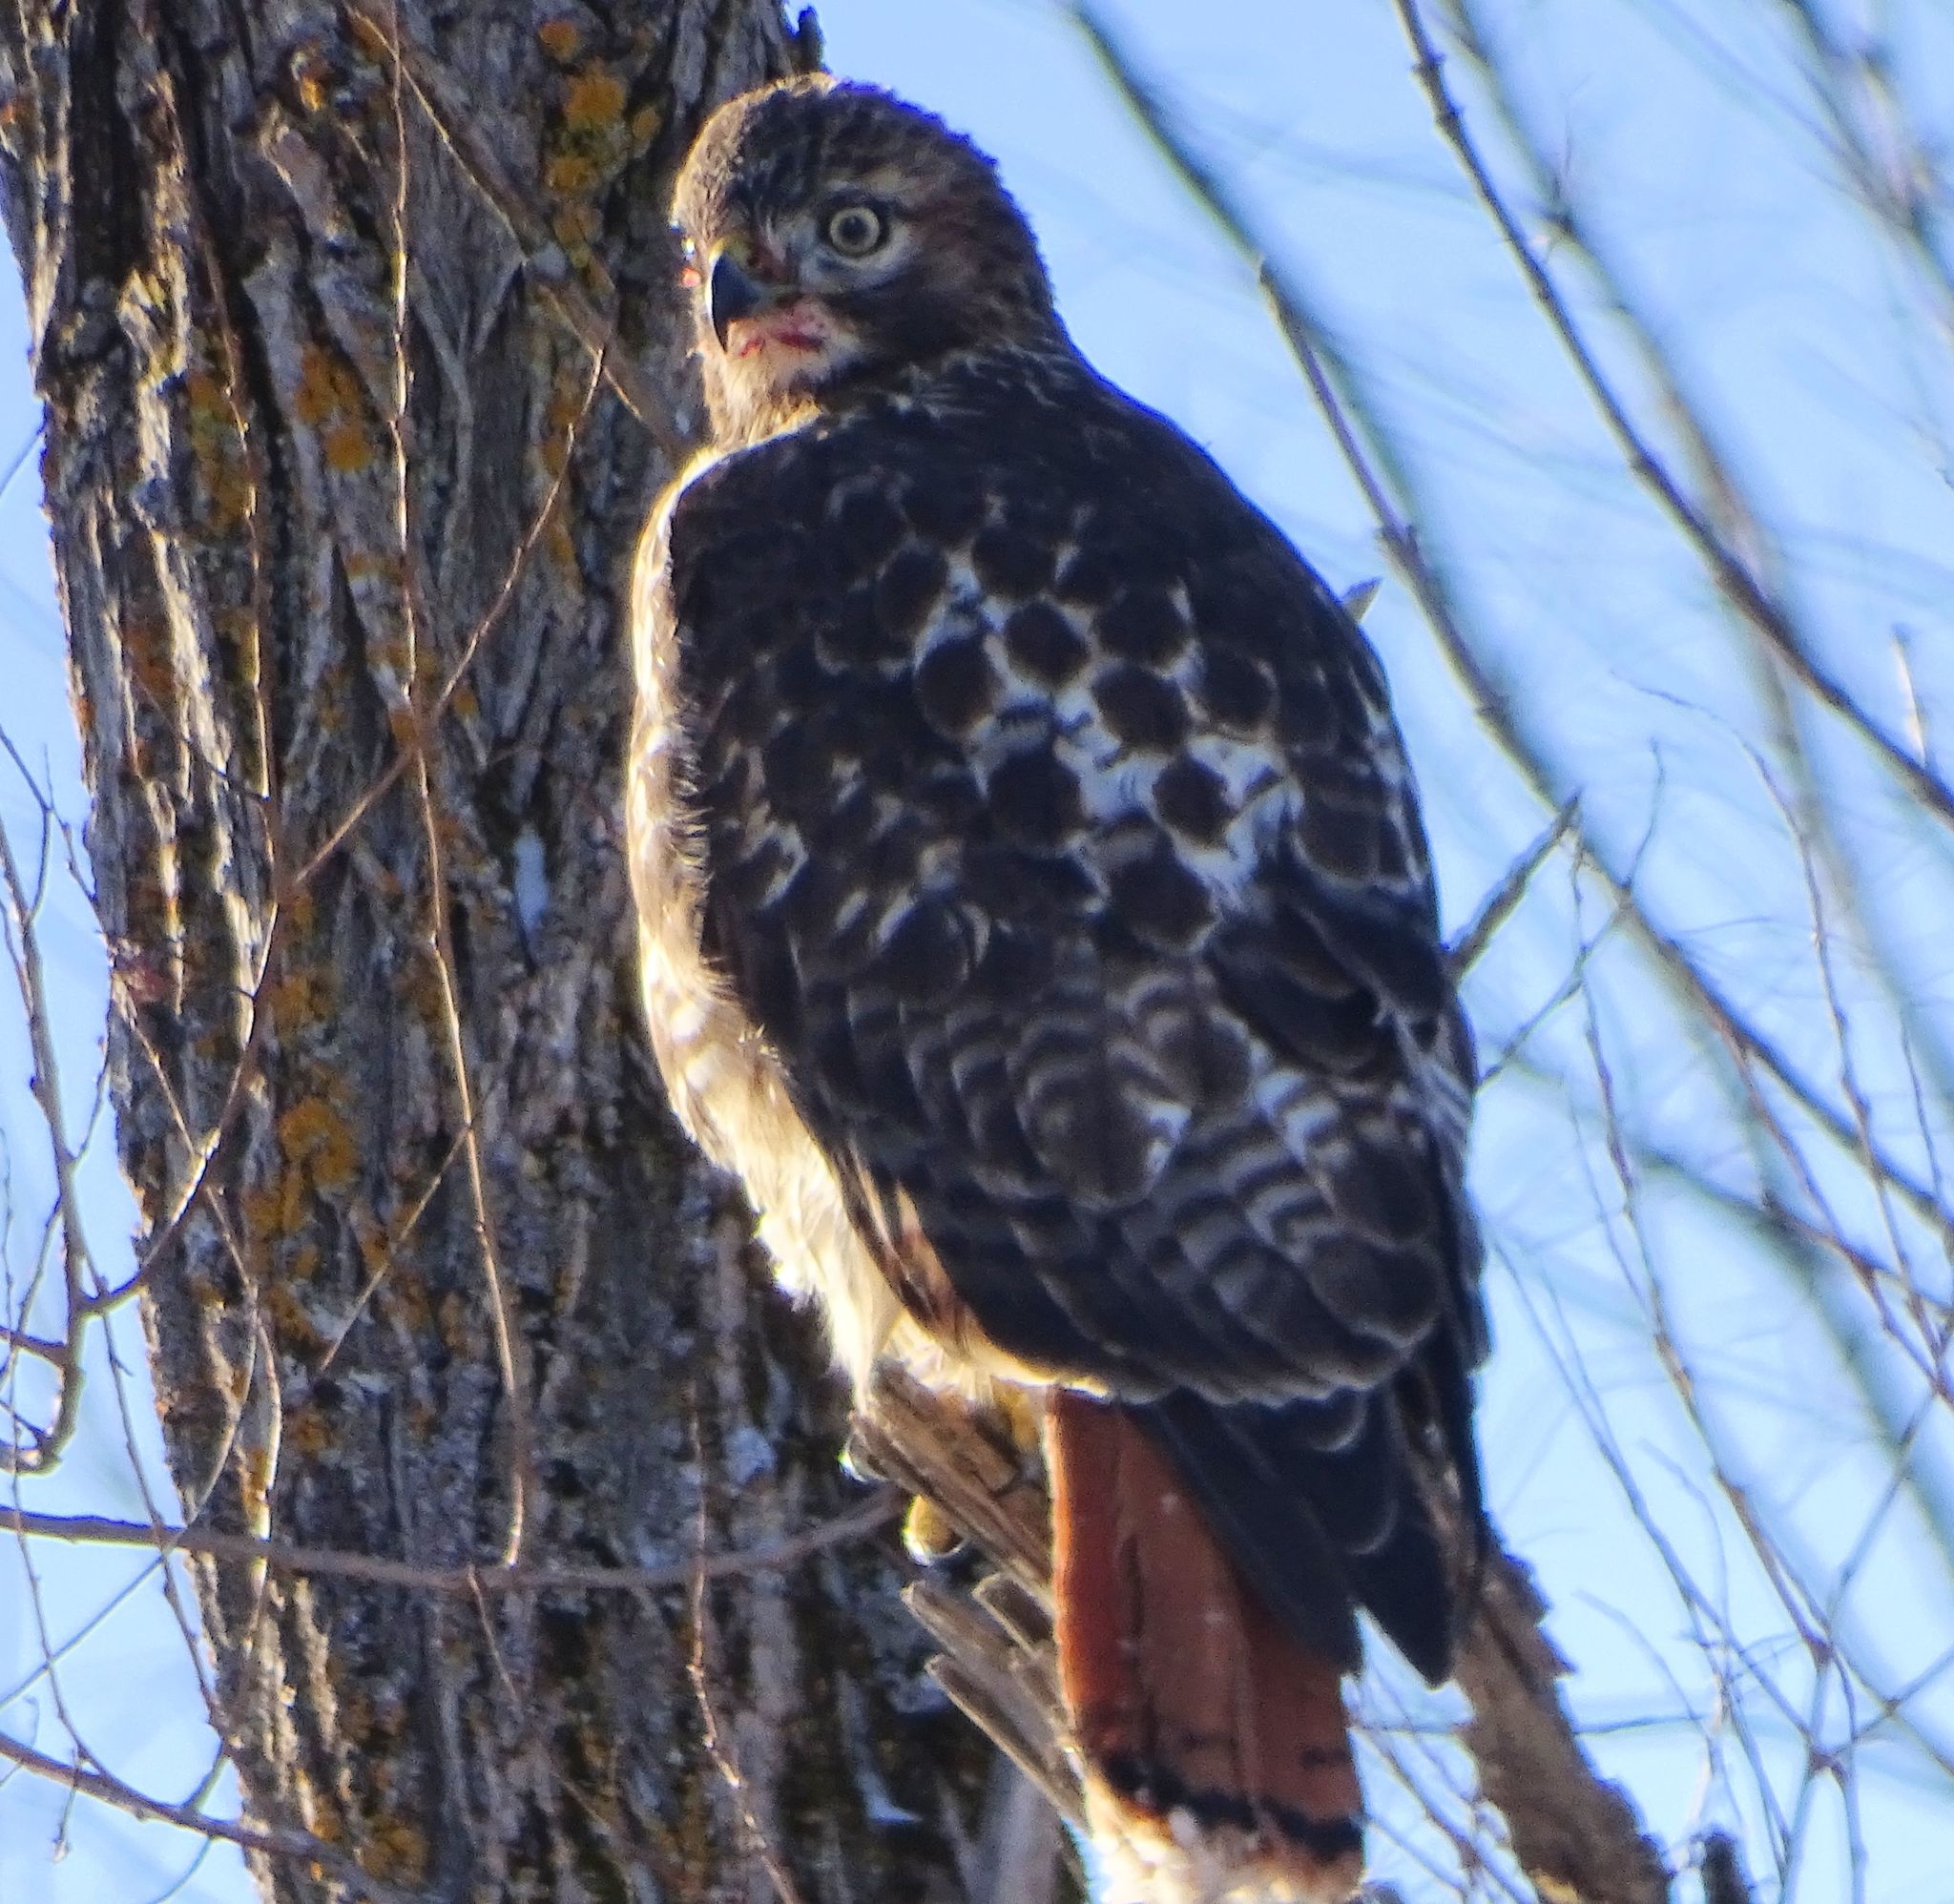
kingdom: Animalia
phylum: Chordata
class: Aves
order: Accipitriformes
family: Accipitridae
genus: Buteo
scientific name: Buteo jamaicensis
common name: Red-tailed hawk
